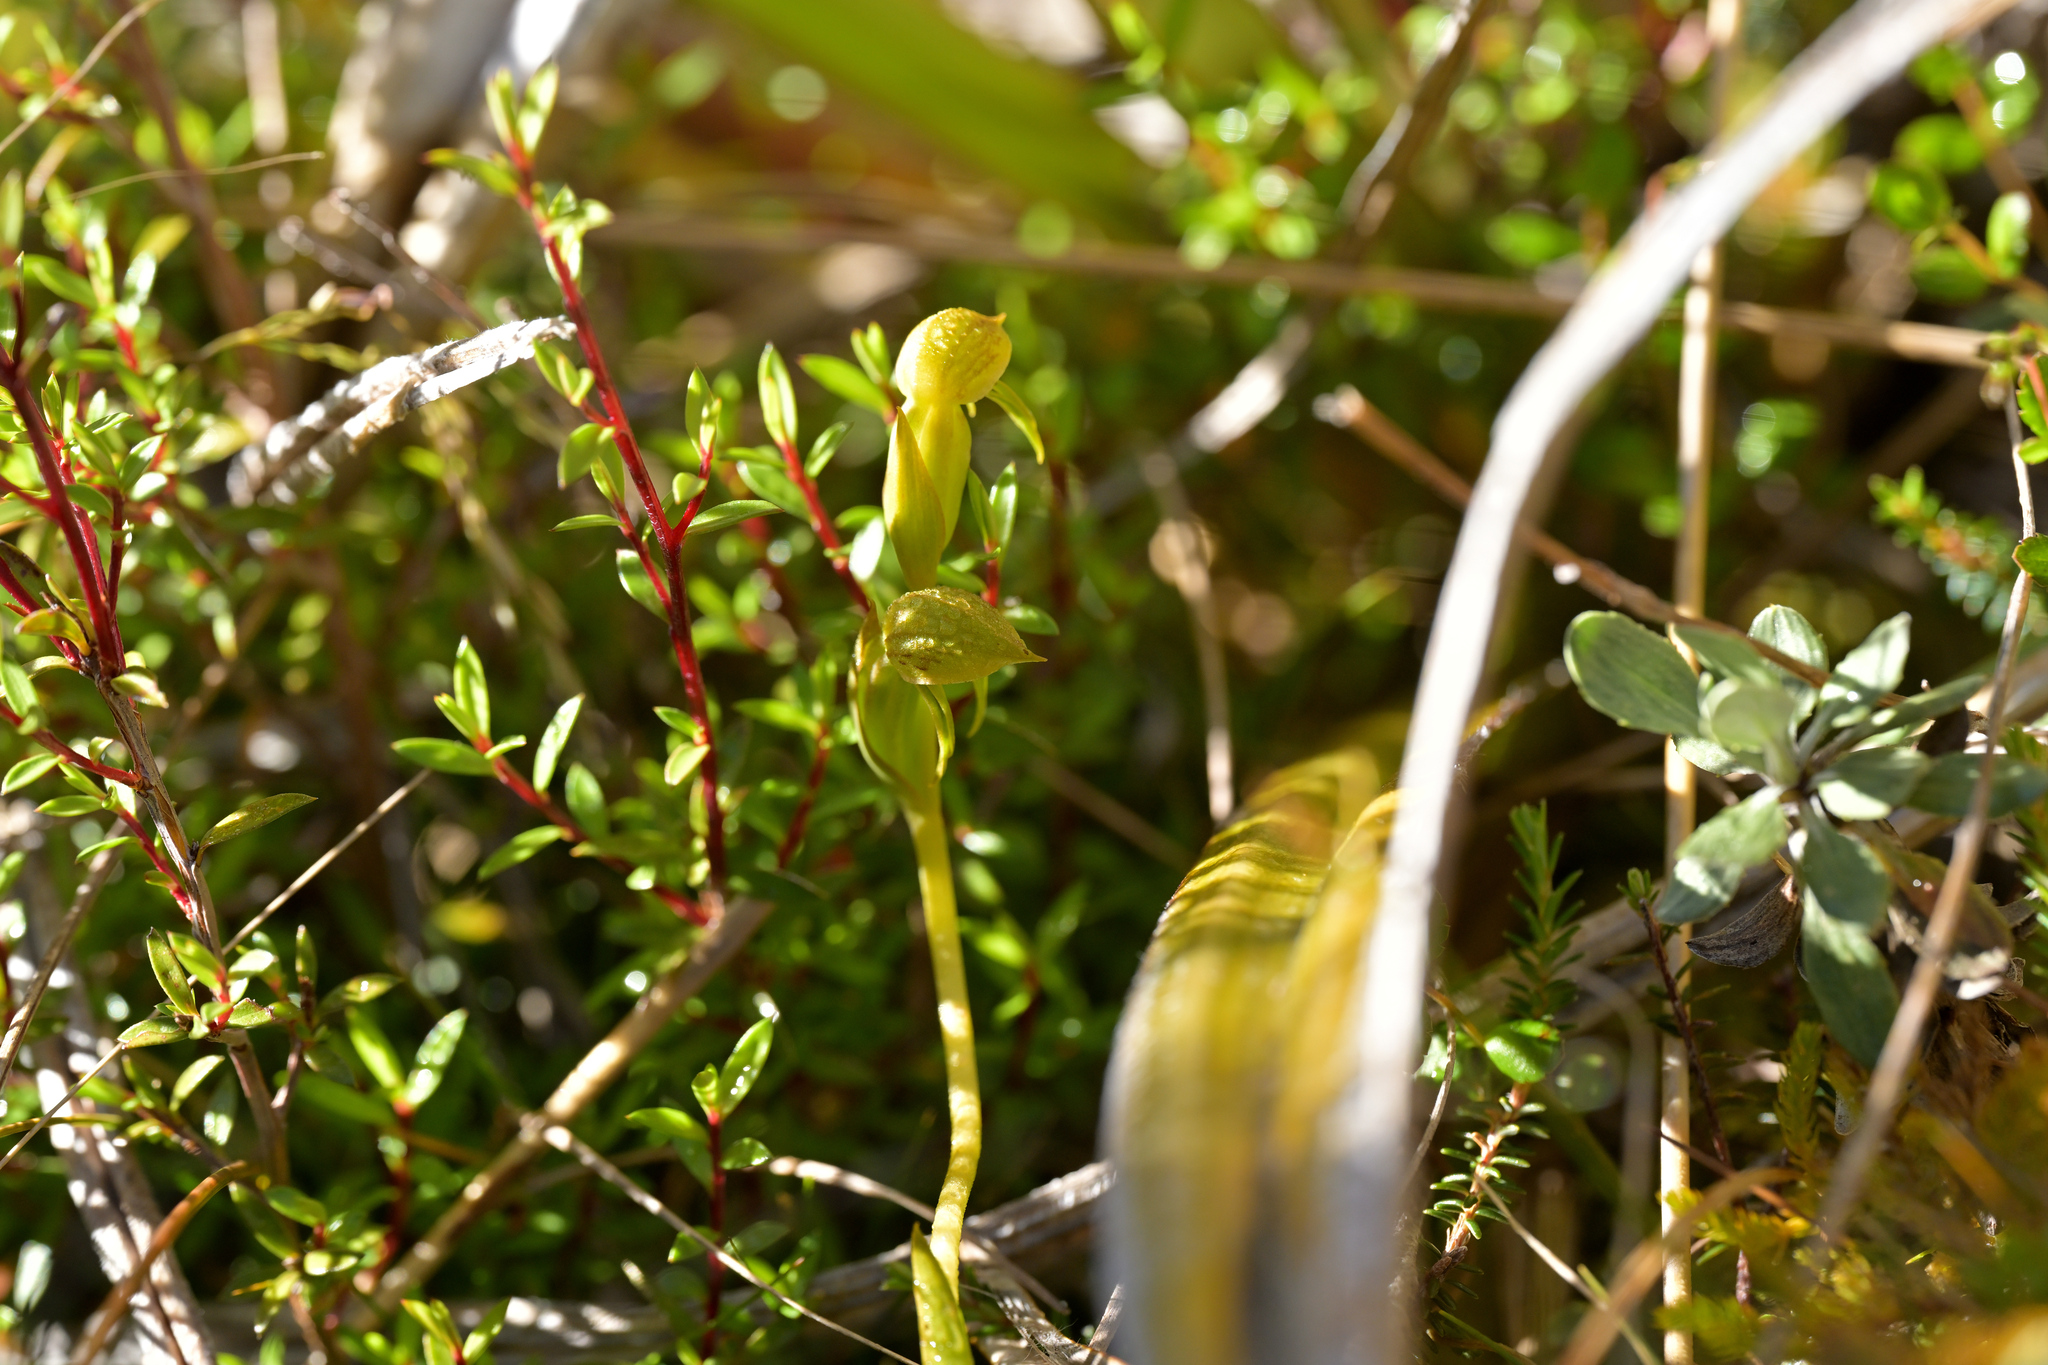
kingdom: Plantae
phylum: Tracheophyta
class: Liliopsida
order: Asparagales
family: Orchidaceae
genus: Waireia
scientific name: Waireia stenopetala
